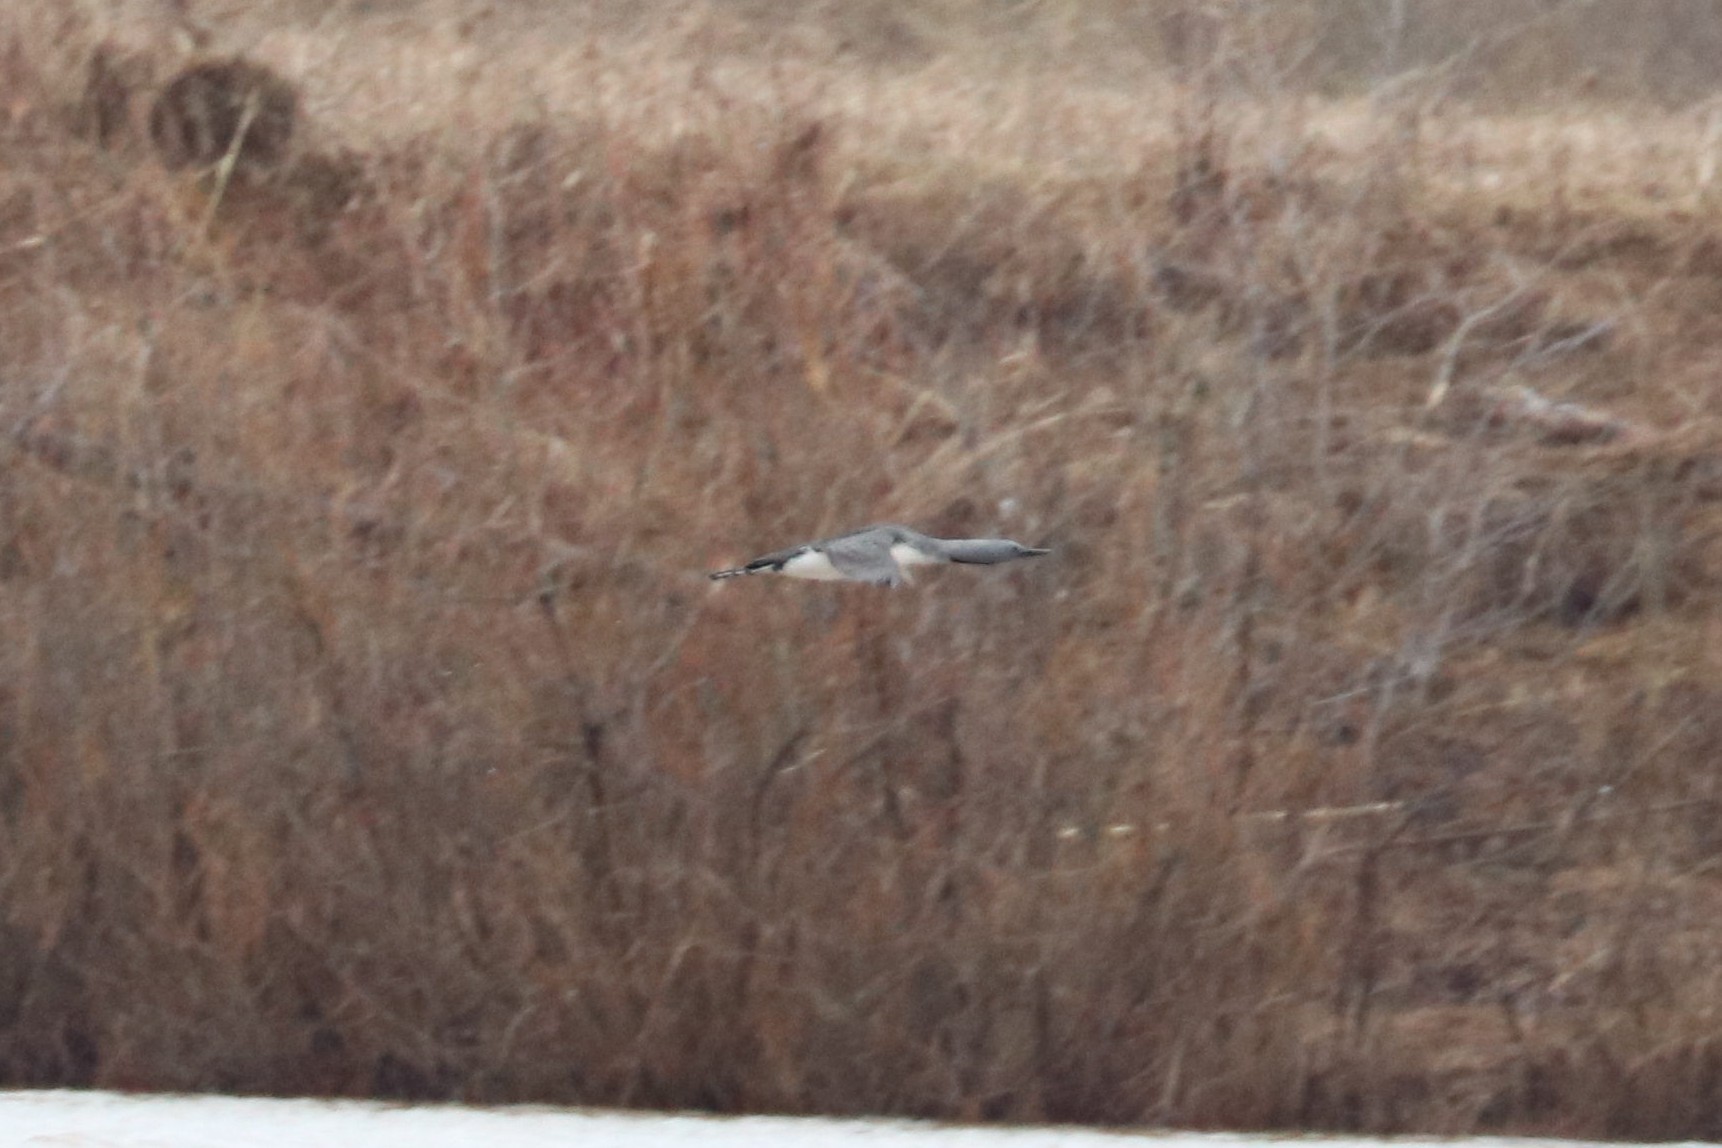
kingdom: Animalia
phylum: Chordata
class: Aves
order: Gaviiformes
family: Gaviidae
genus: Gavia
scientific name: Gavia stellata
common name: Red-throated loon
